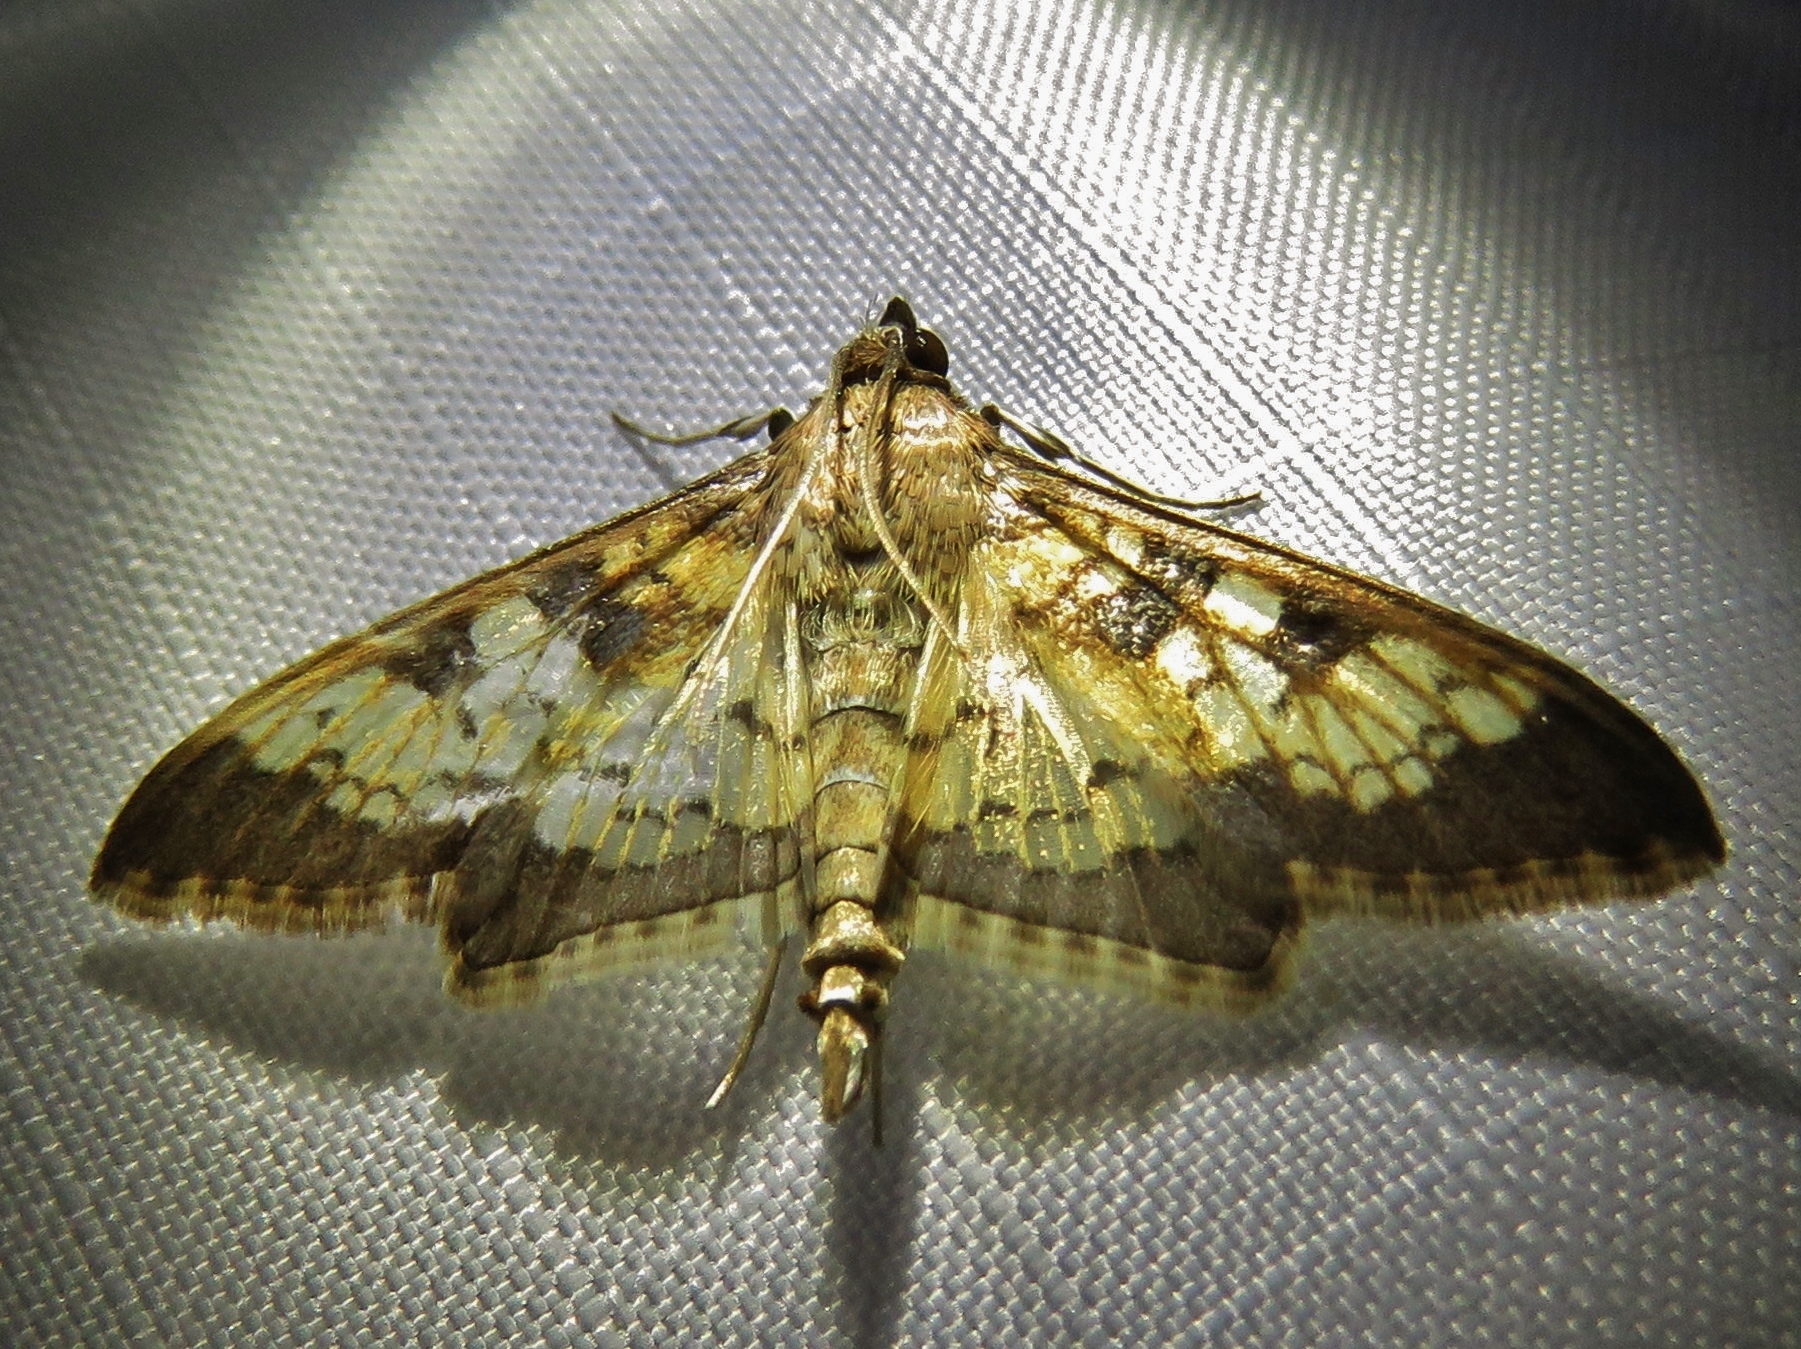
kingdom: Animalia
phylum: Arthropoda
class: Insecta
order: Lepidoptera
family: Crambidae
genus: Cryptographis
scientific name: Cryptographis elealis
